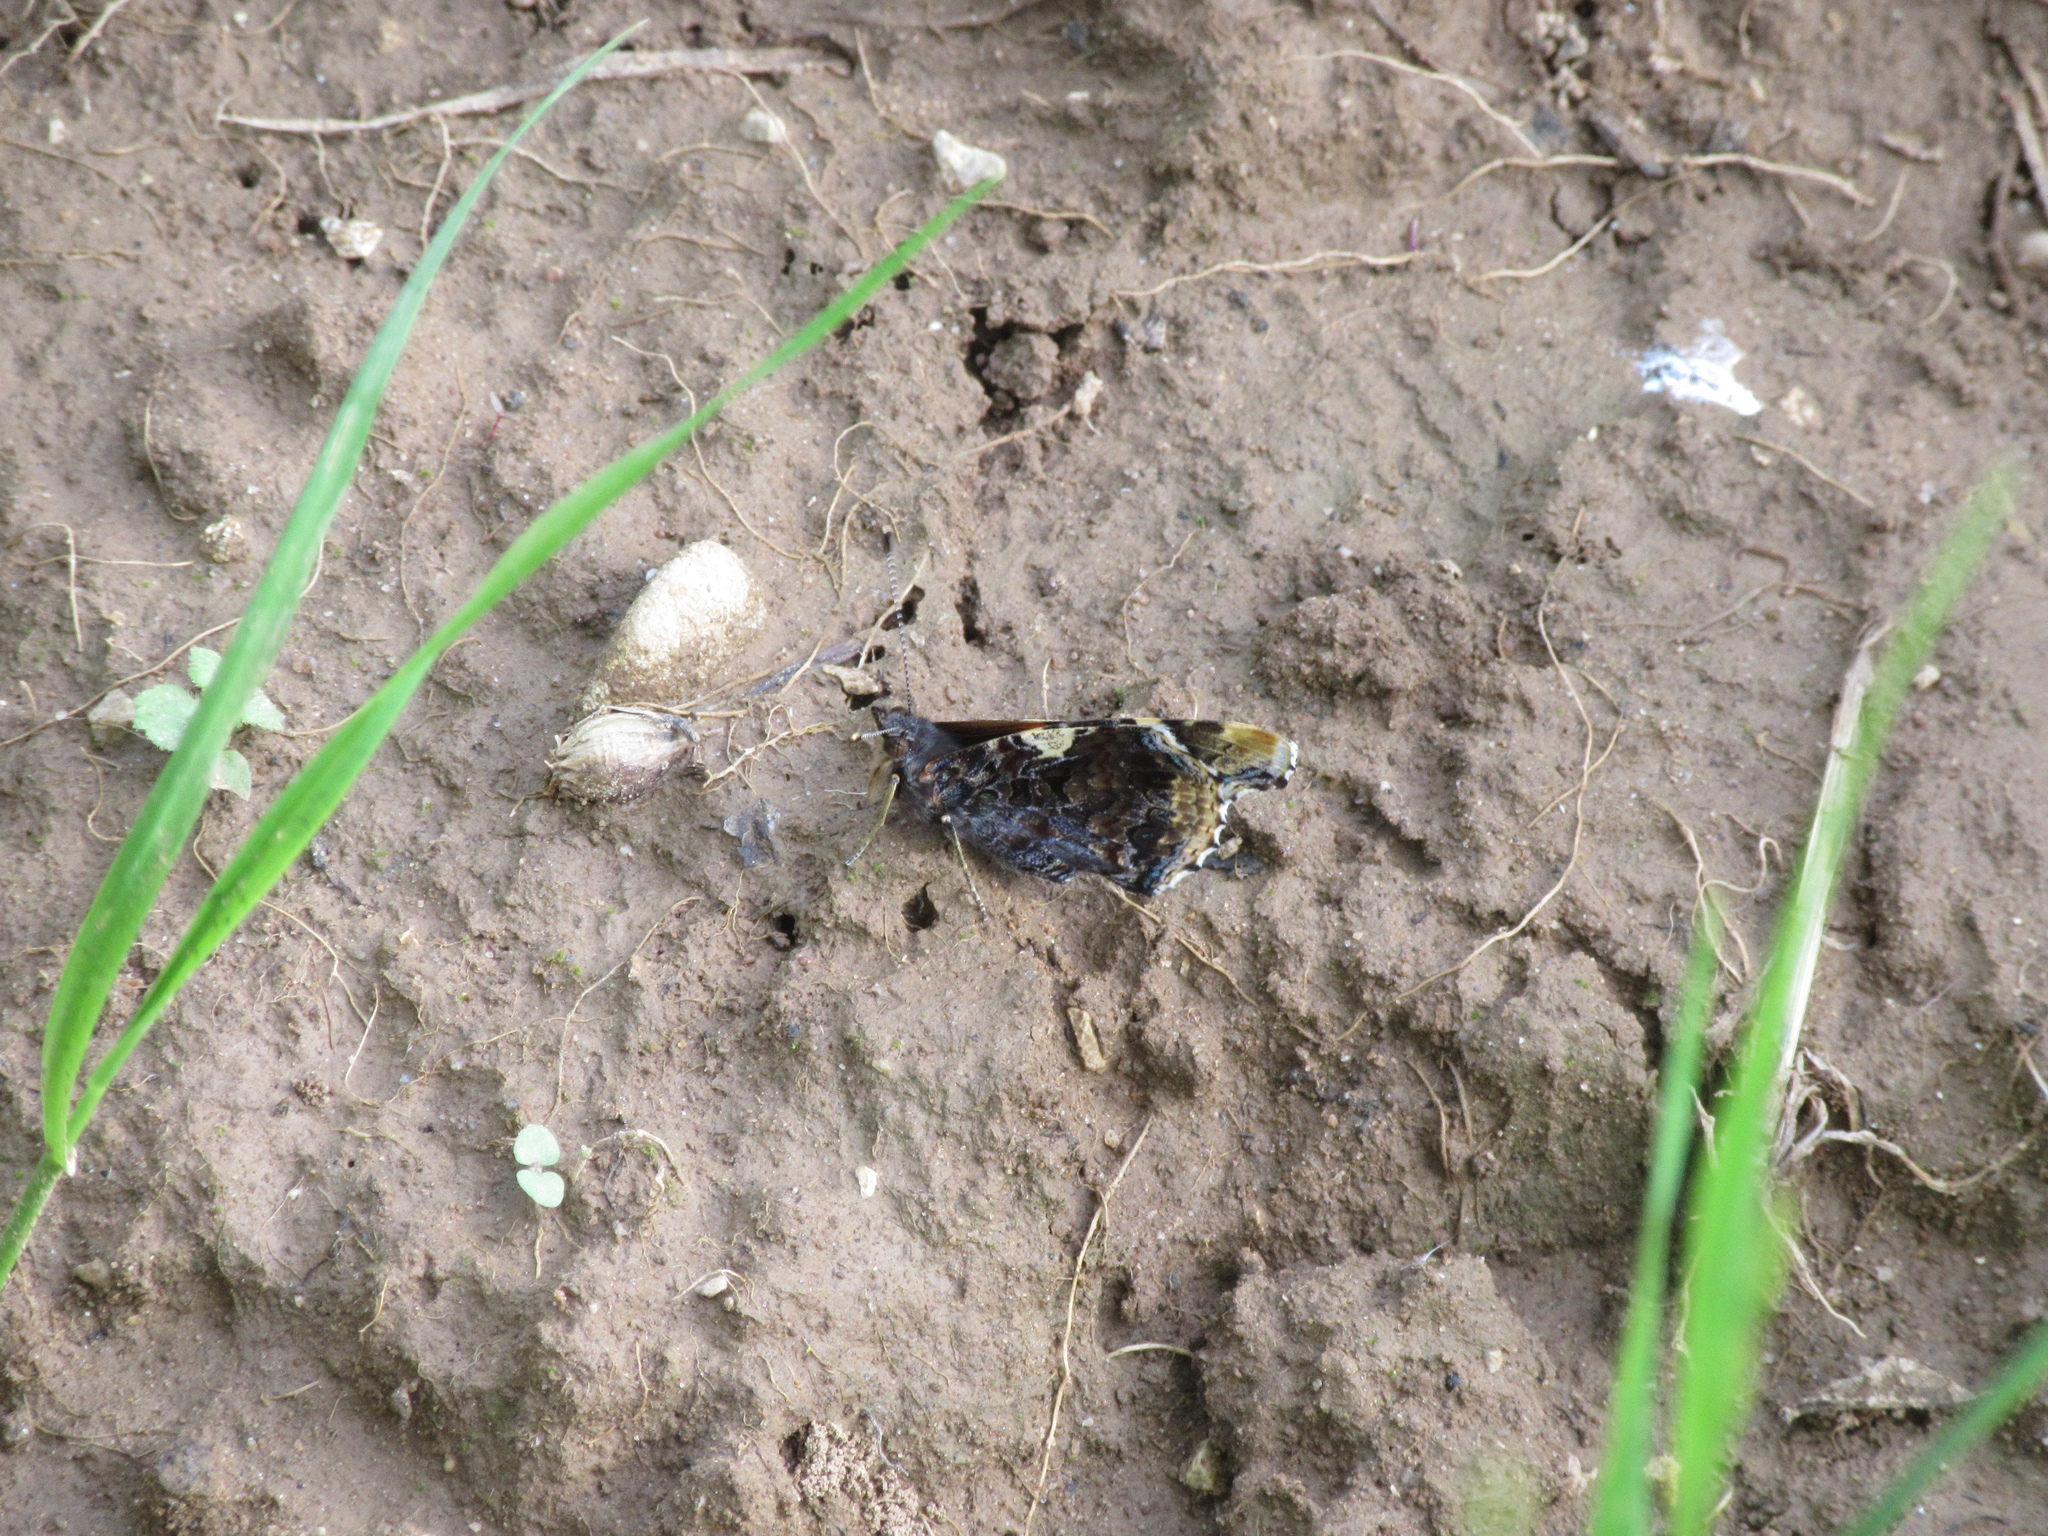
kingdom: Animalia
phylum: Arthropoda
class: Insecta
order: Lepidoptera
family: Nymphalidae
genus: Vanessa
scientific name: Vanessa atalanta
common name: Red admiral
